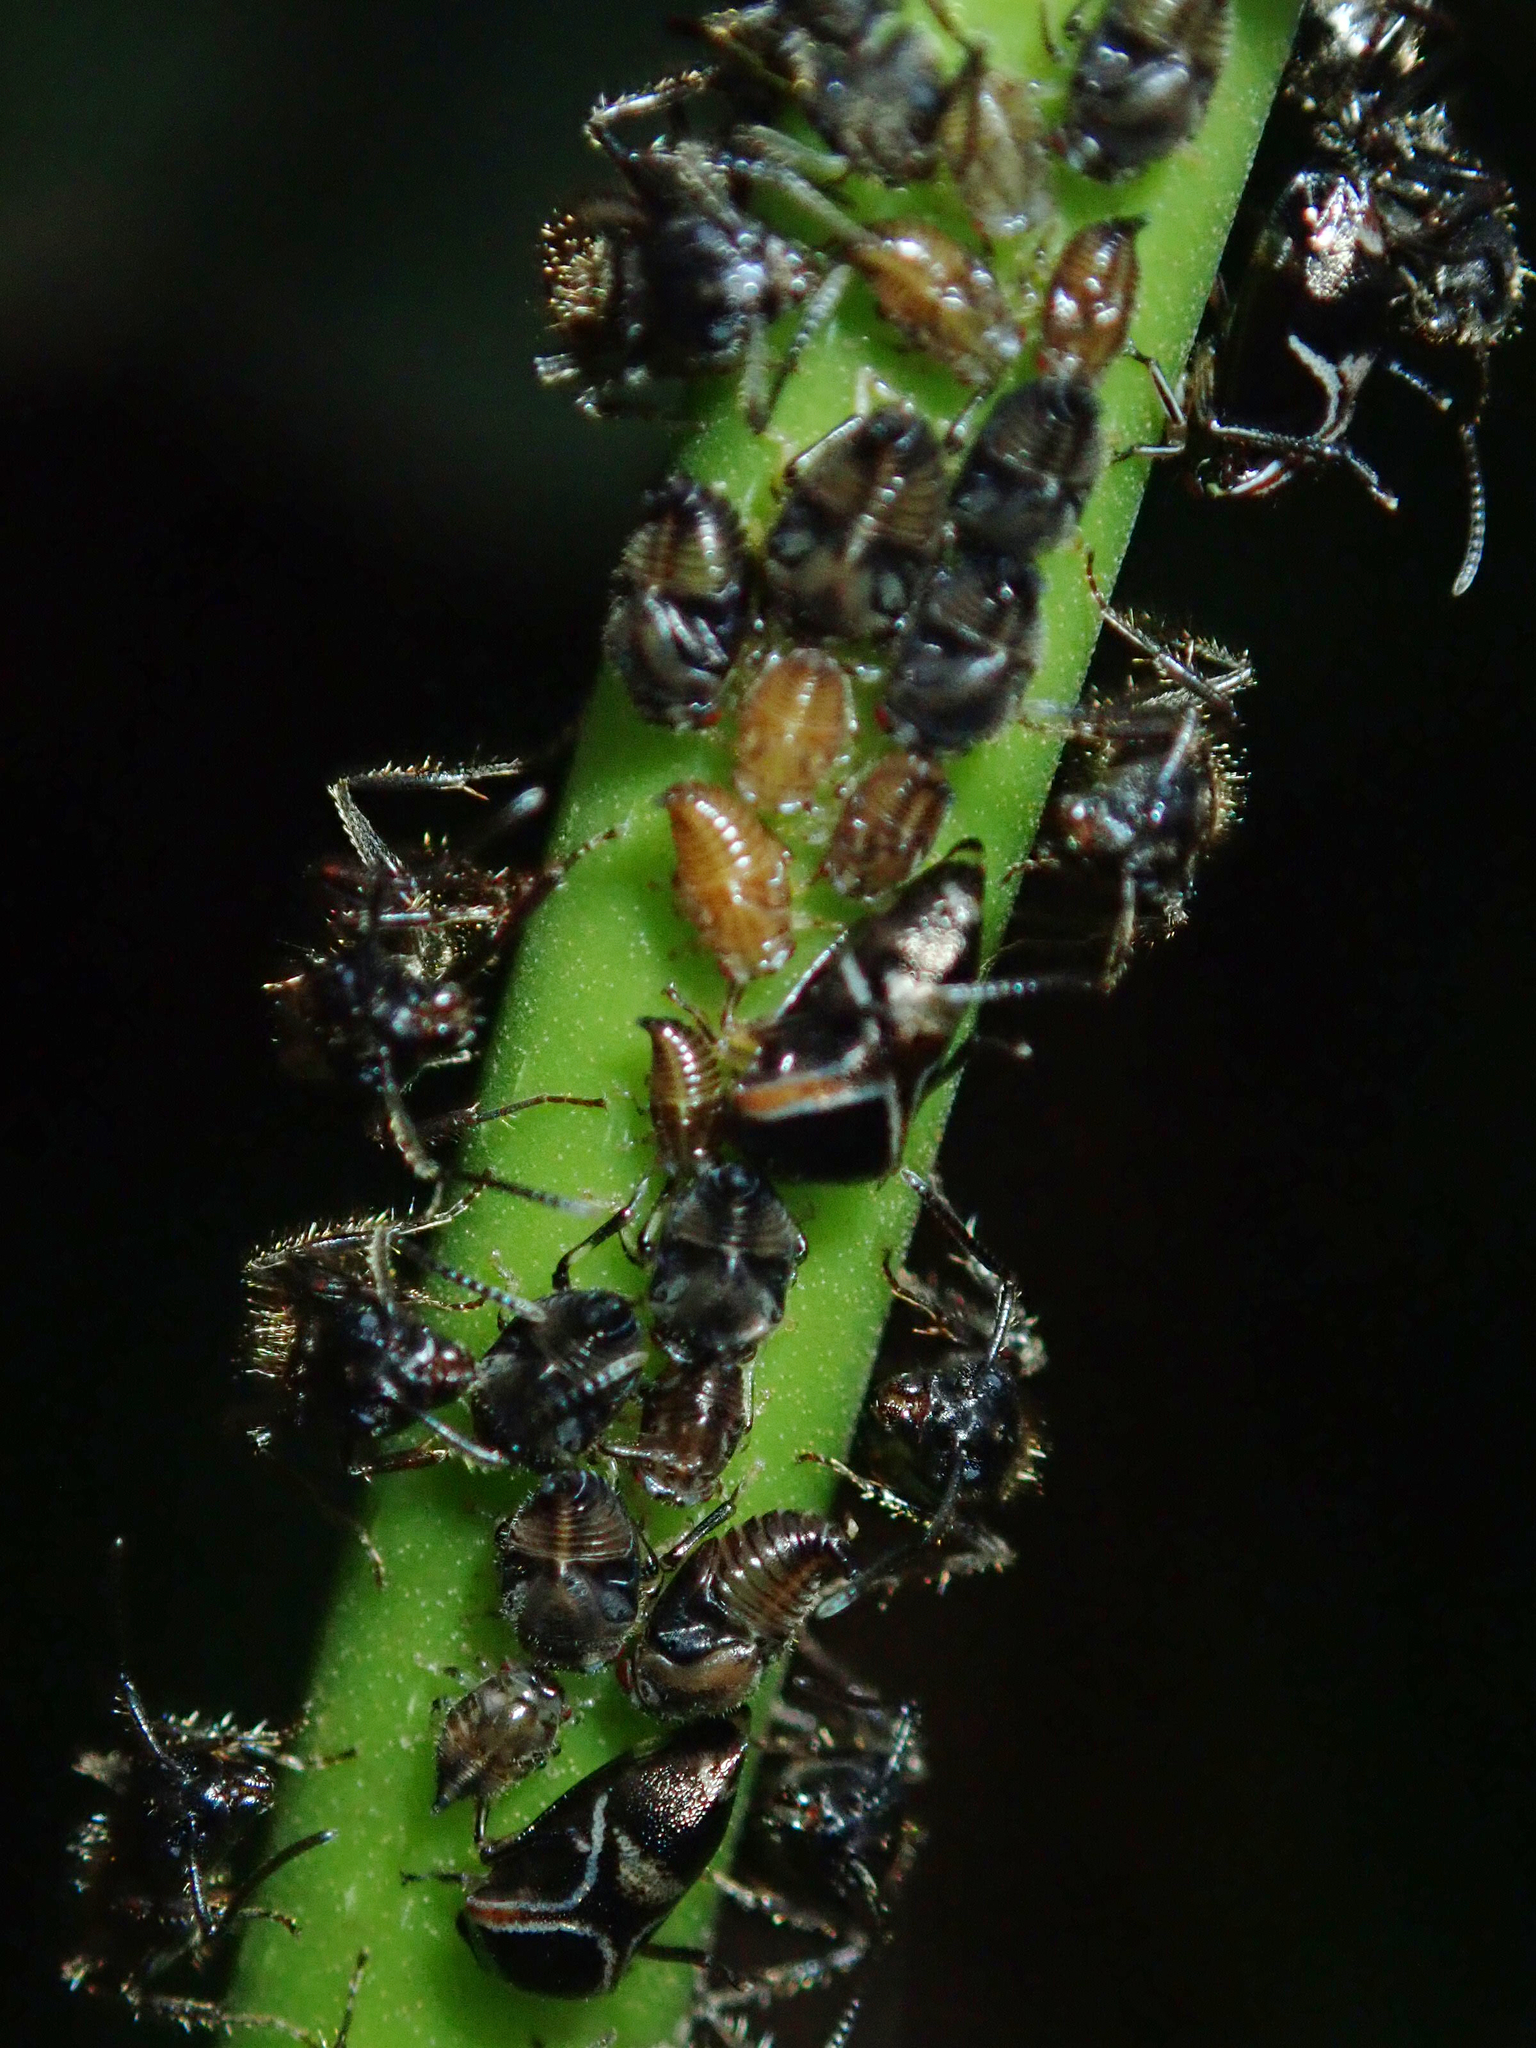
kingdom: Animalia
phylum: Arthropoda
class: Insecta
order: Hemiptera
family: Membracidae
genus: Horiola
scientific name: Horiola picta
